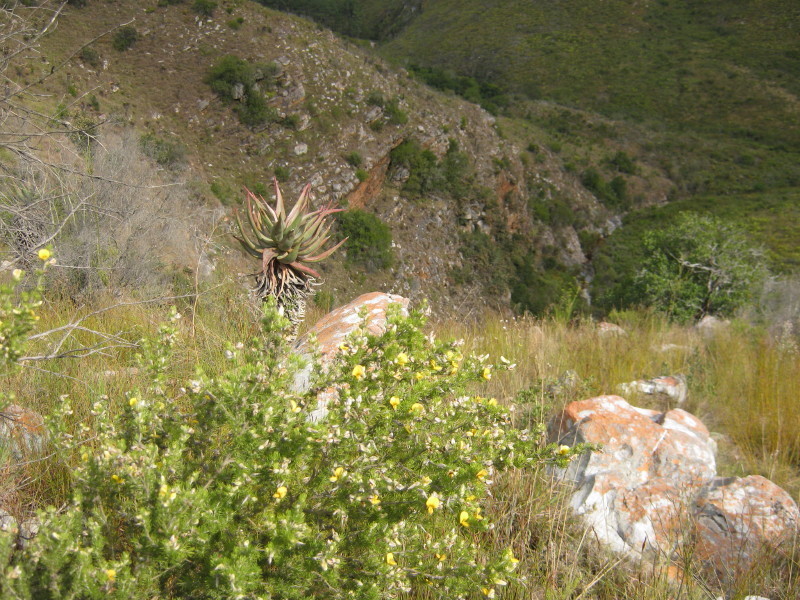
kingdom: Plantae
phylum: Tracheophyta
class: Liliopsida
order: Asparagales
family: Asphodelaceae
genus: Aloe
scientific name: Aloe ferox
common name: Bitter aloe
